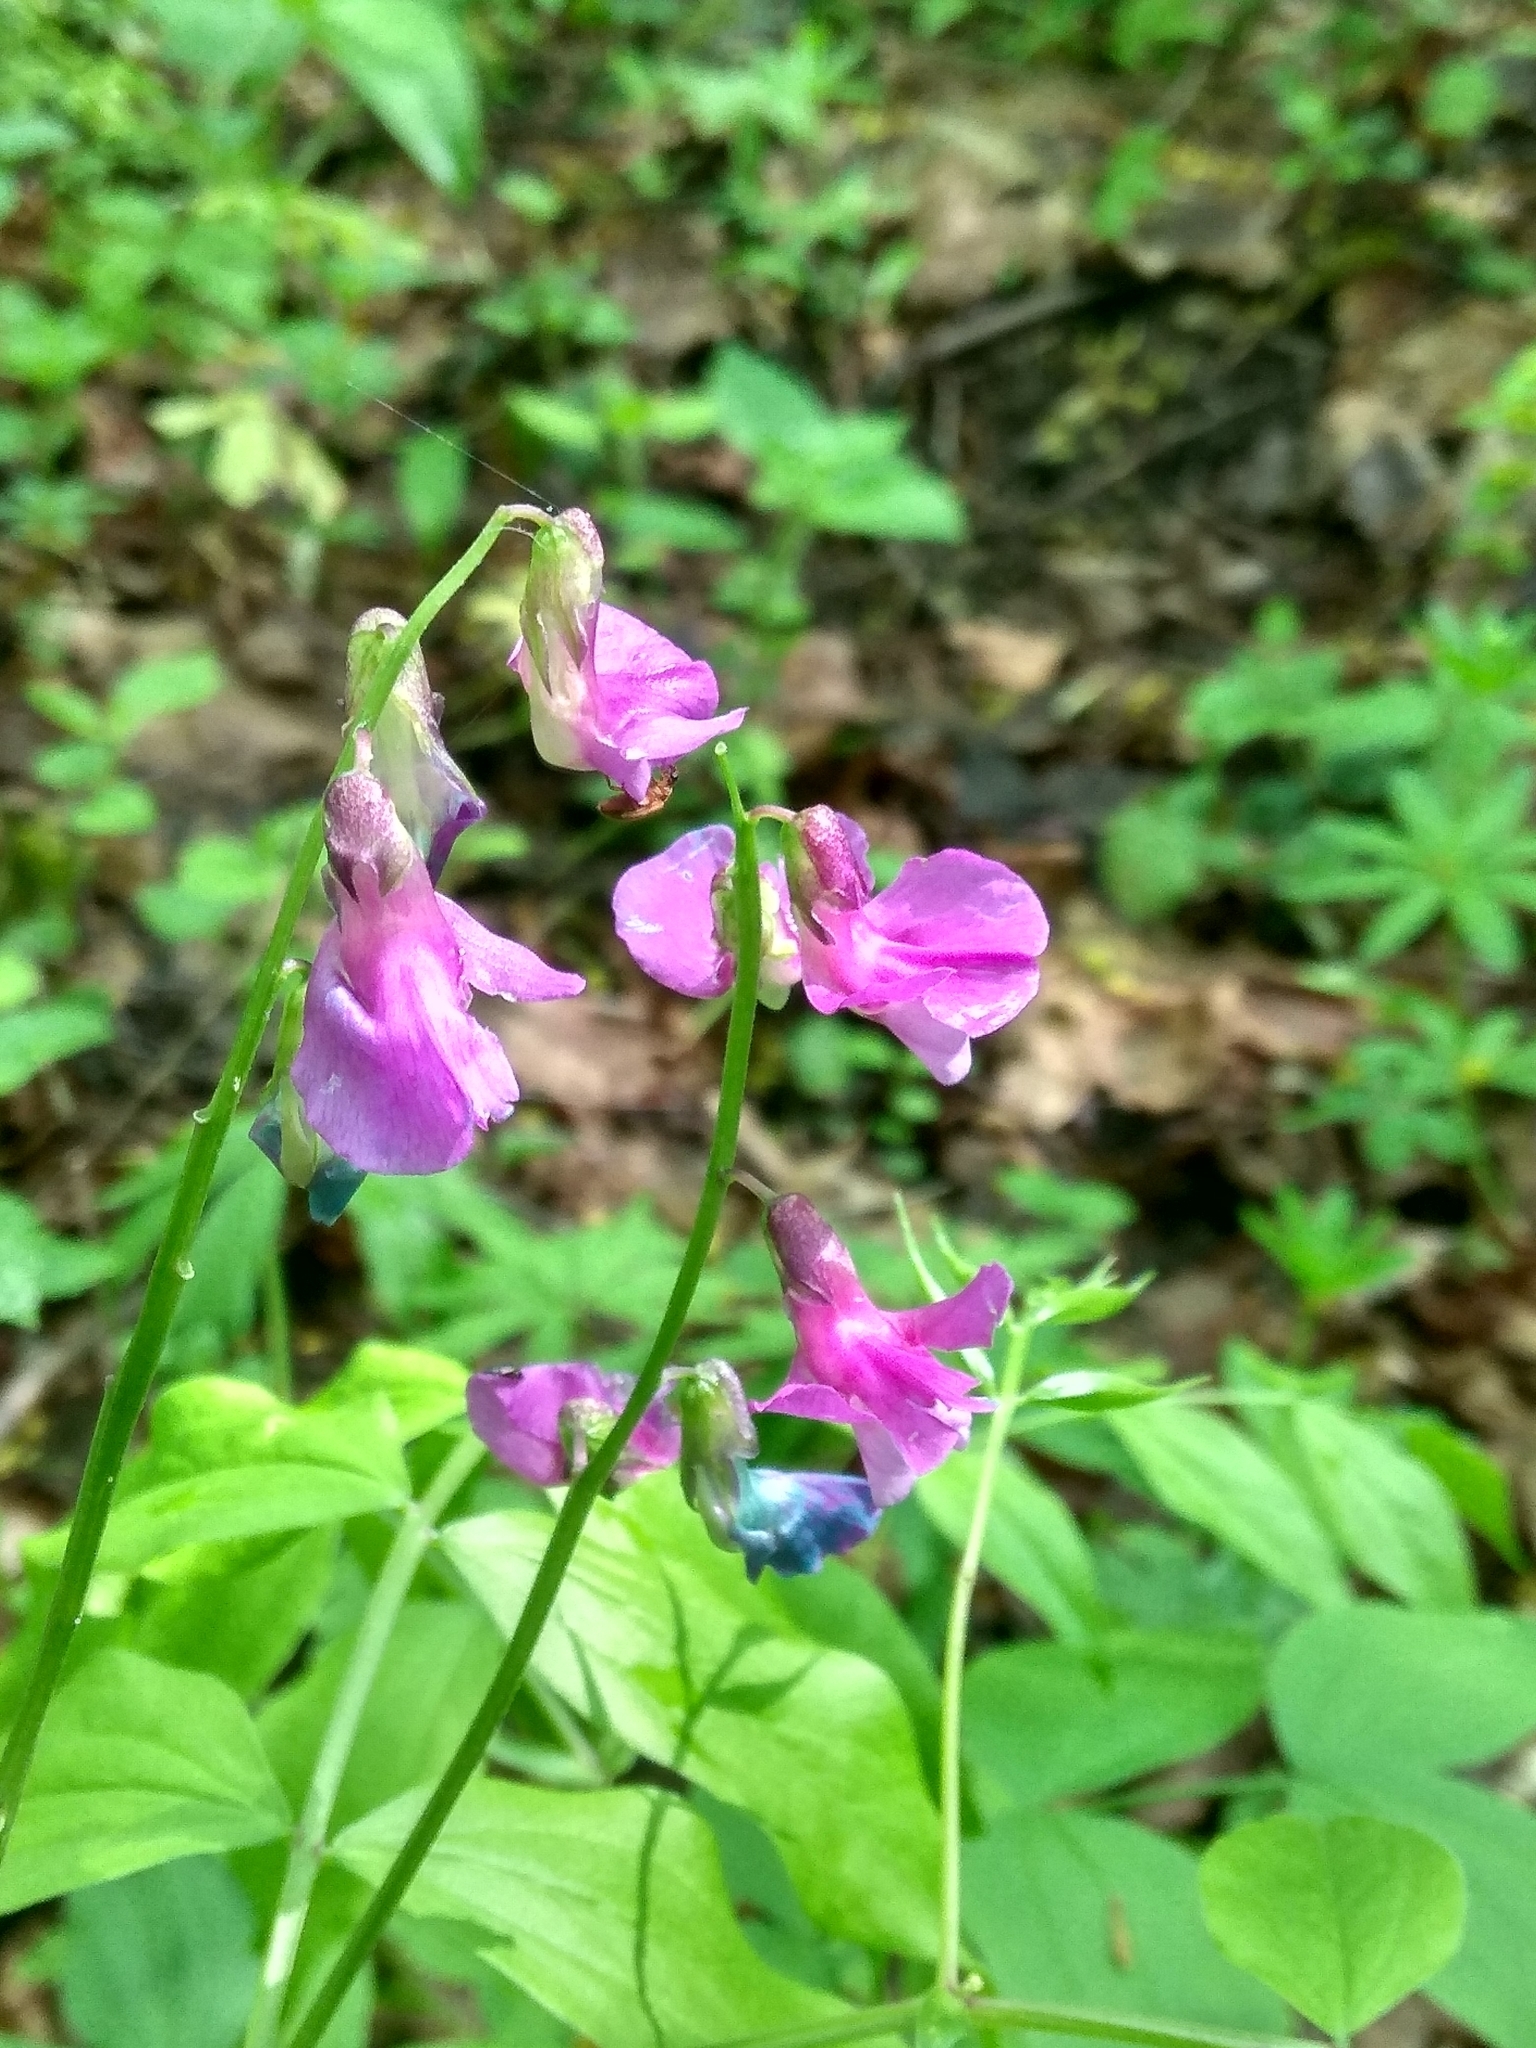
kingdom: Plantae
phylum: Tracheophyta
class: Magnoliopsida
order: Fabales
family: Fabaceae
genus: Lathyrus
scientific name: Lathyrus vernus
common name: Spring pea
